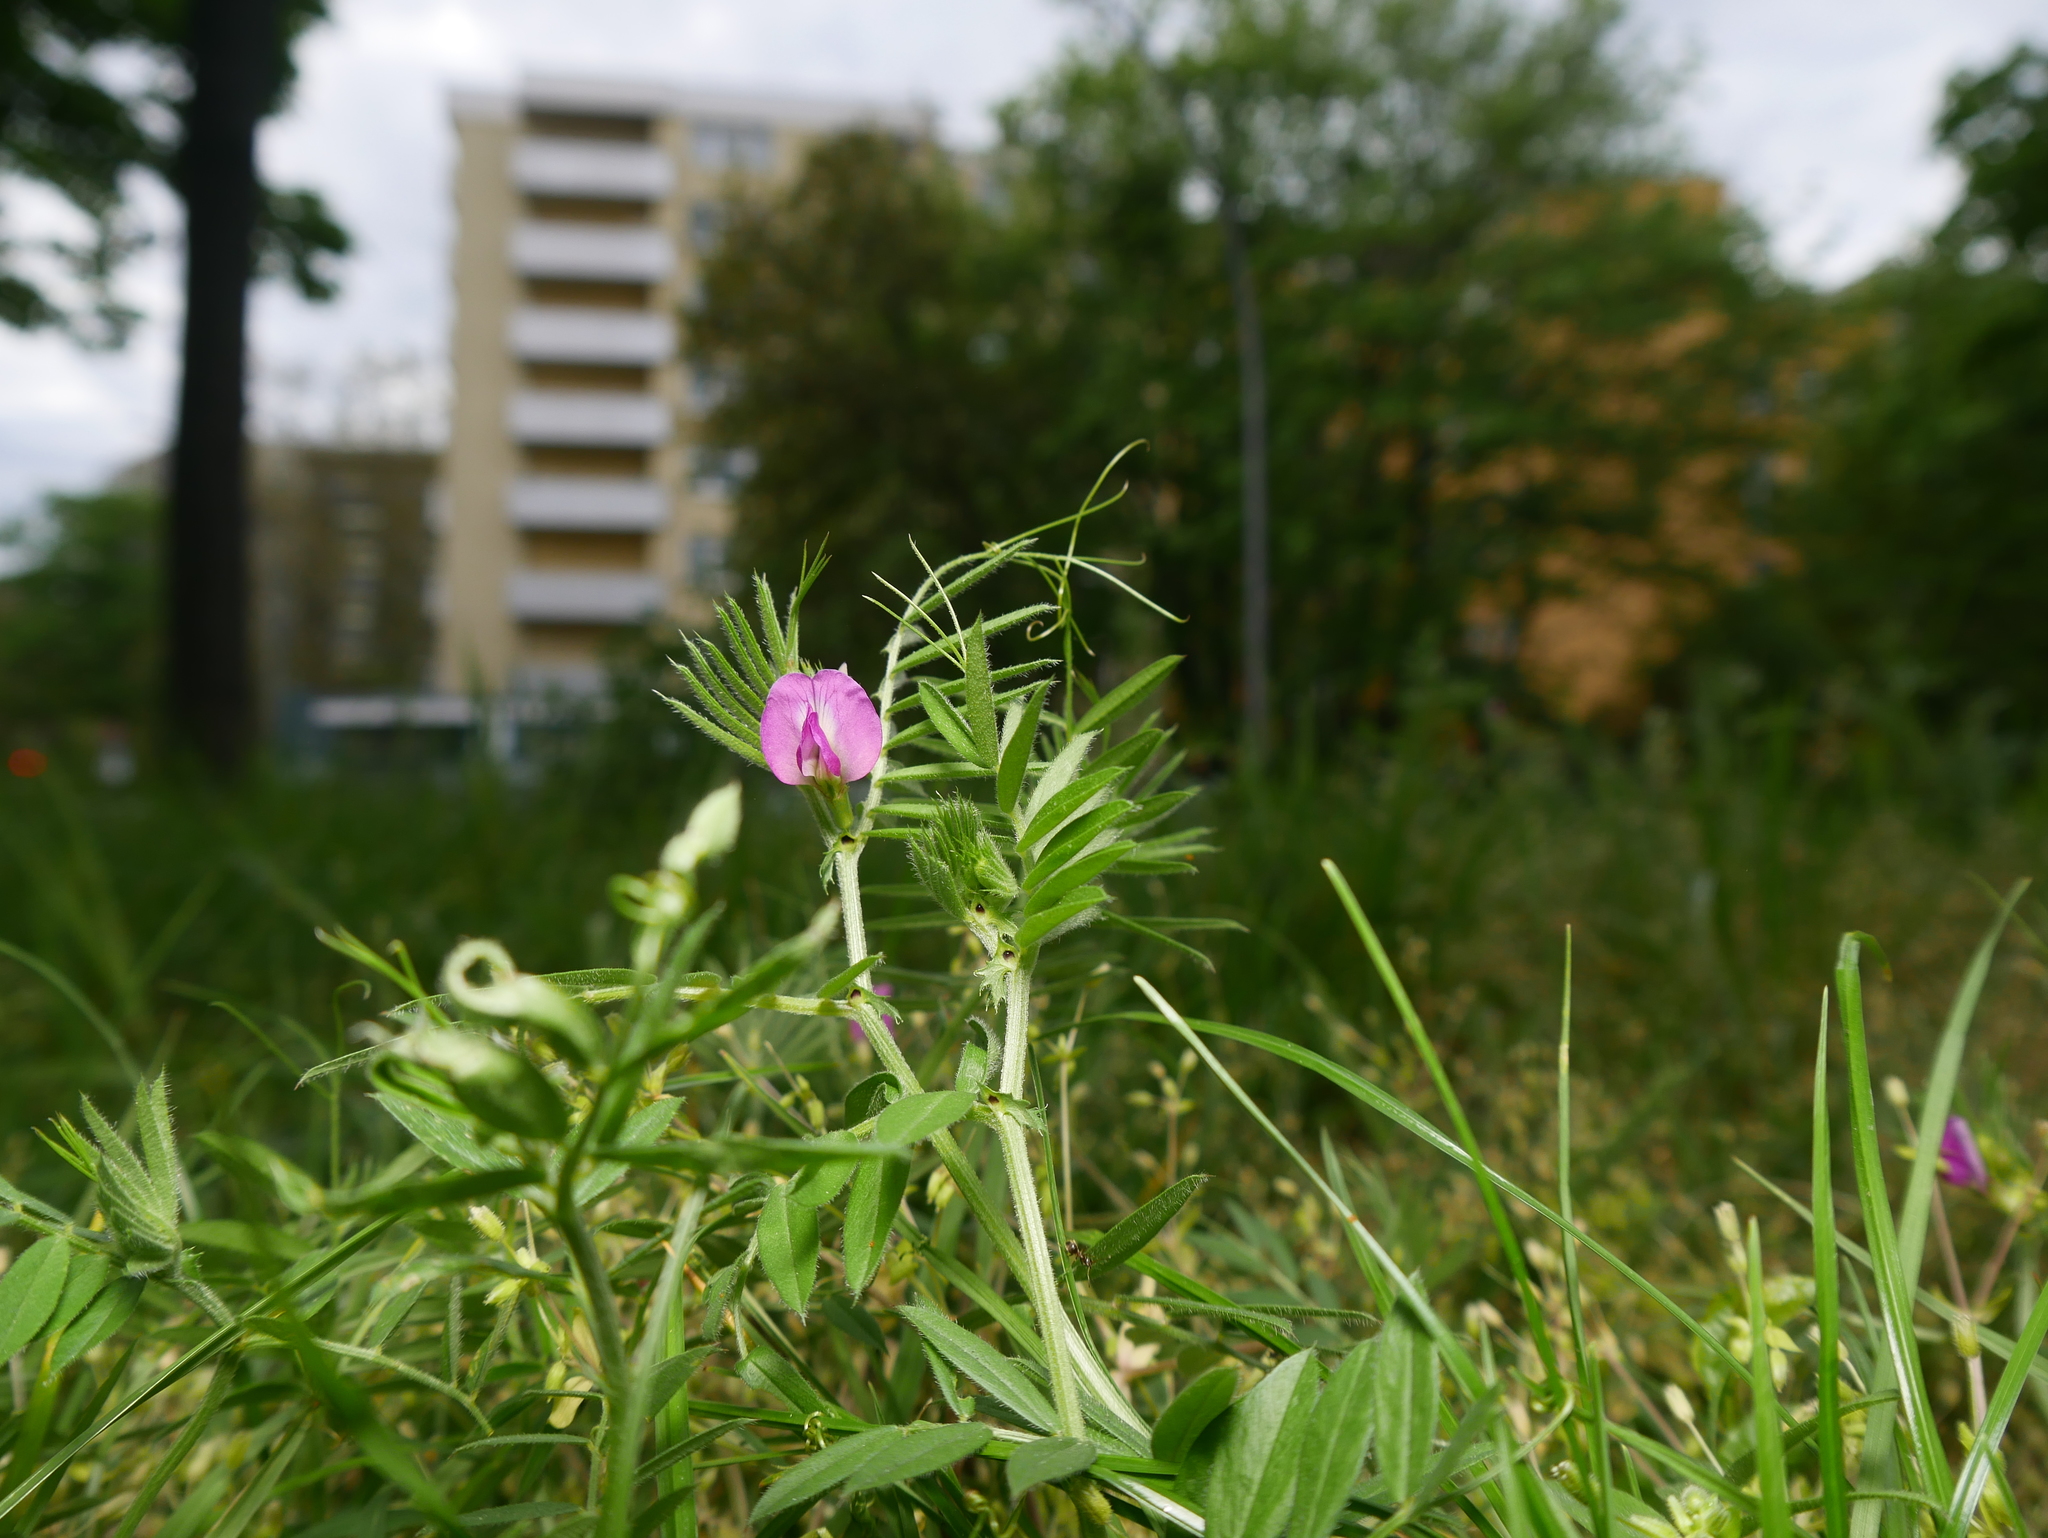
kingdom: Plantae
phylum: Tracheophyta
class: Magnoliopsida
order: Fabales
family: Fabaceae
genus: Vicia
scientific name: Vicia sativa
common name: Garden vetch
